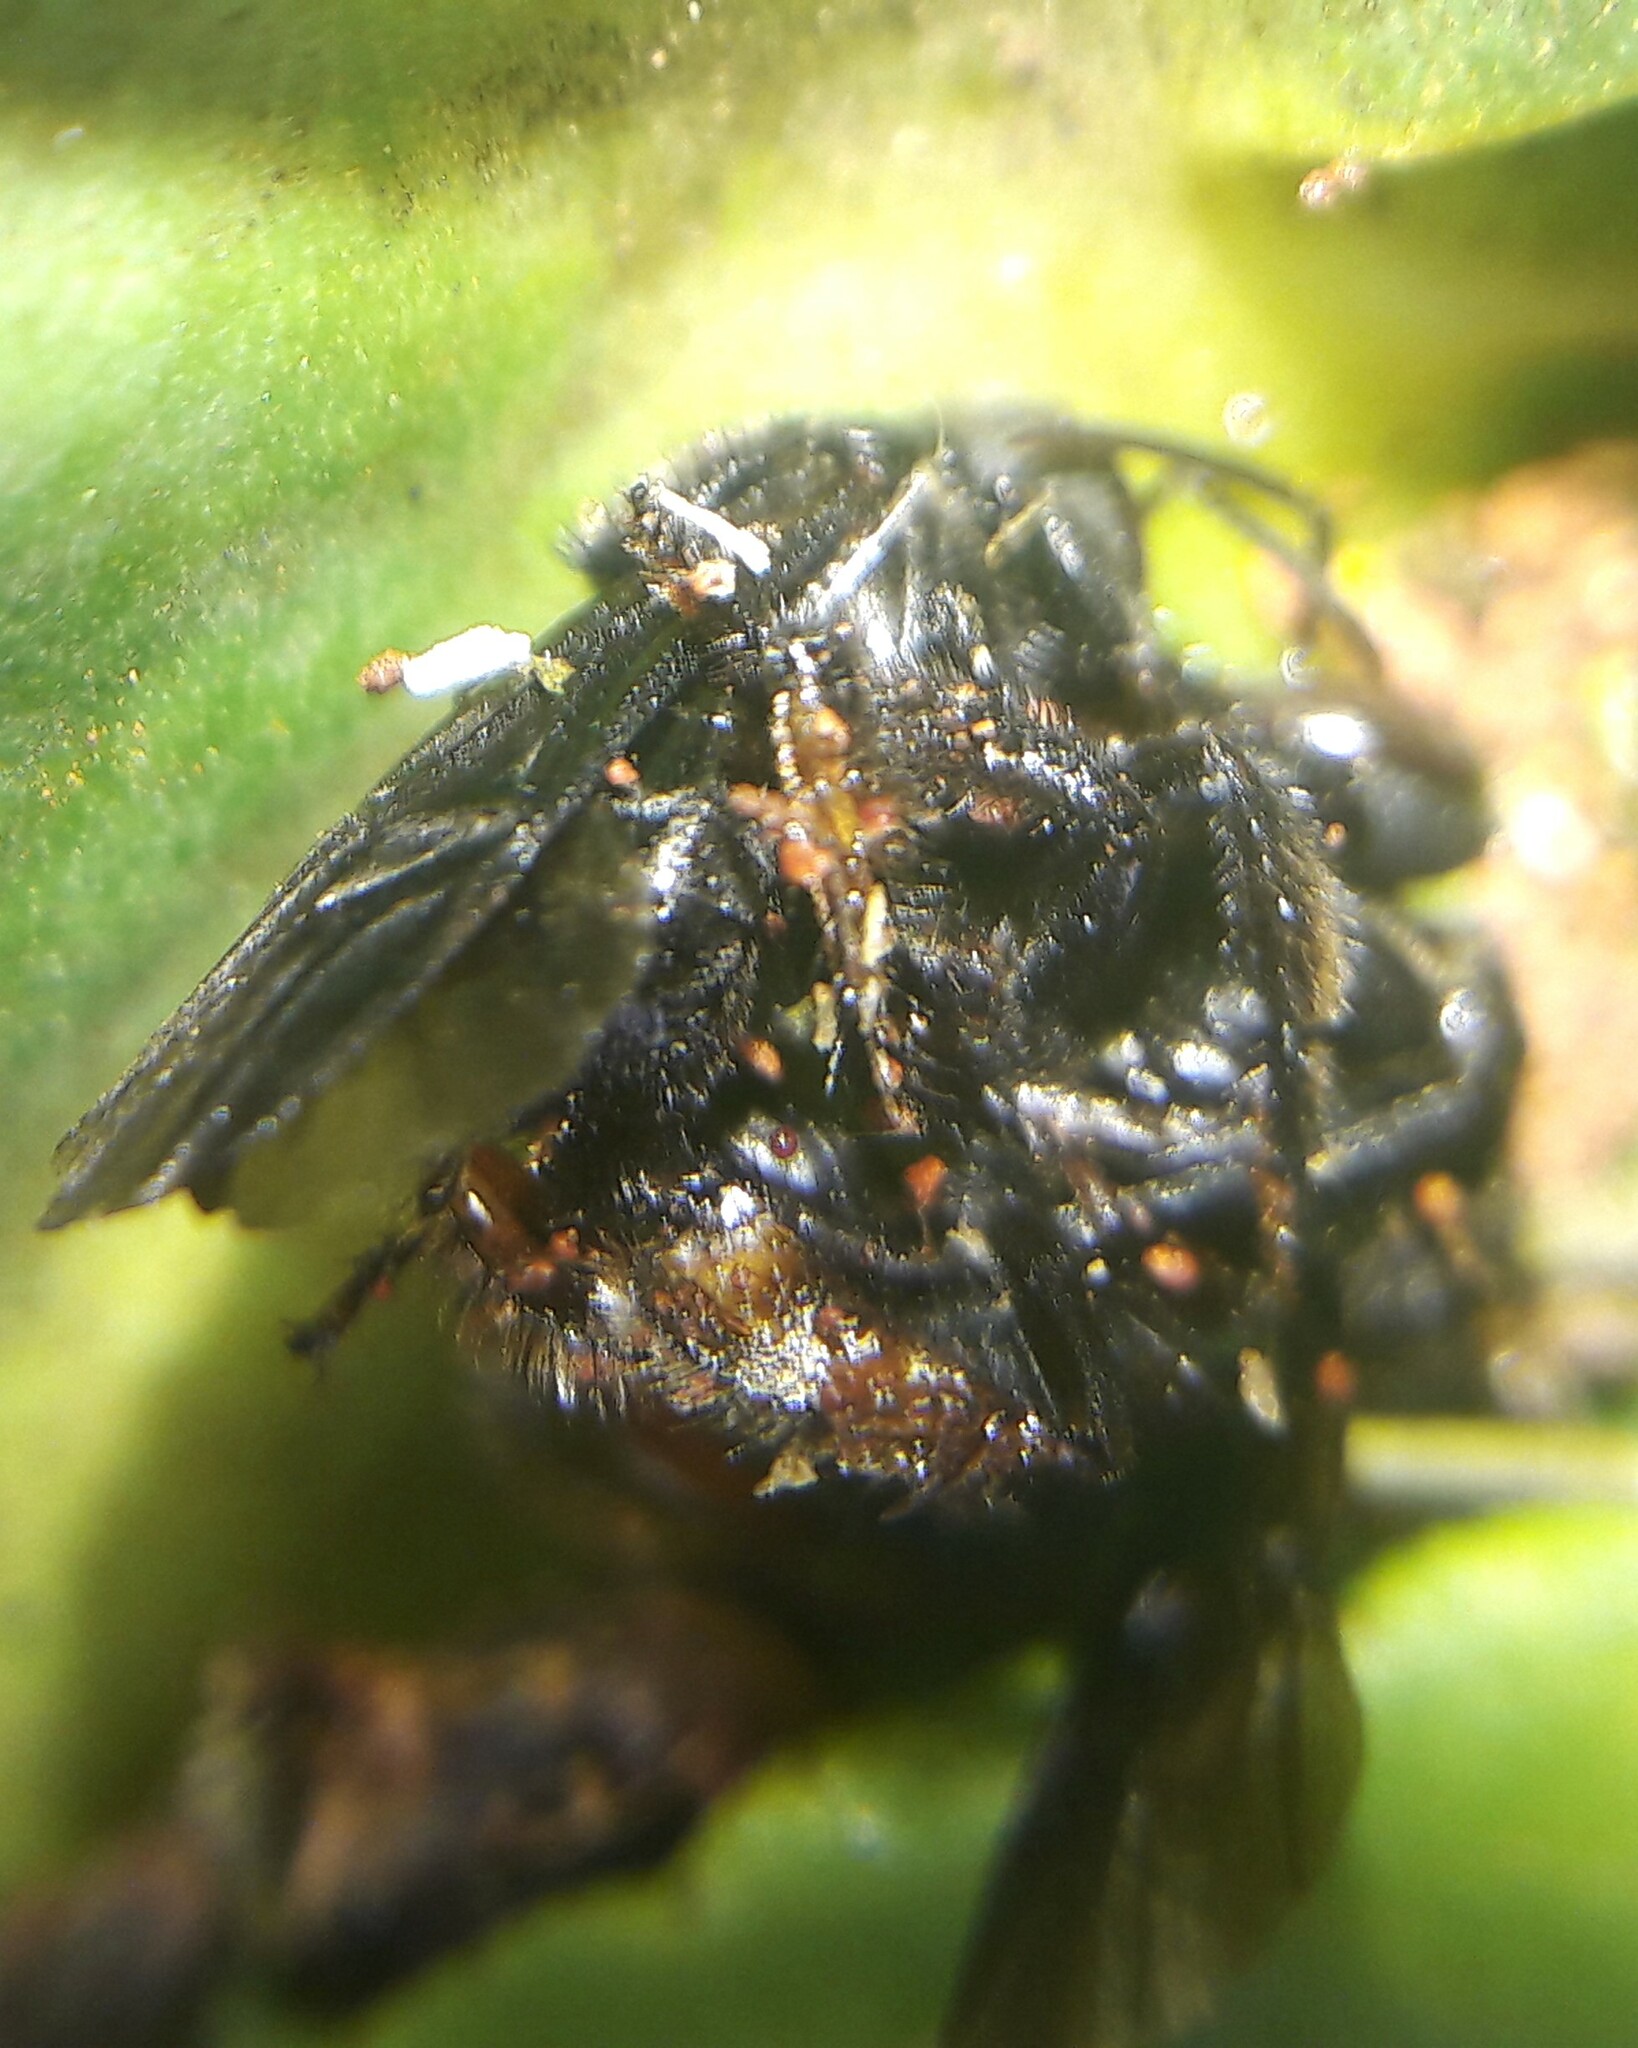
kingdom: Animalia
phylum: Arthropoda
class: Insecta
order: Hymenoptera
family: Apidae
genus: Trigona
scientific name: Trigona spinipes
